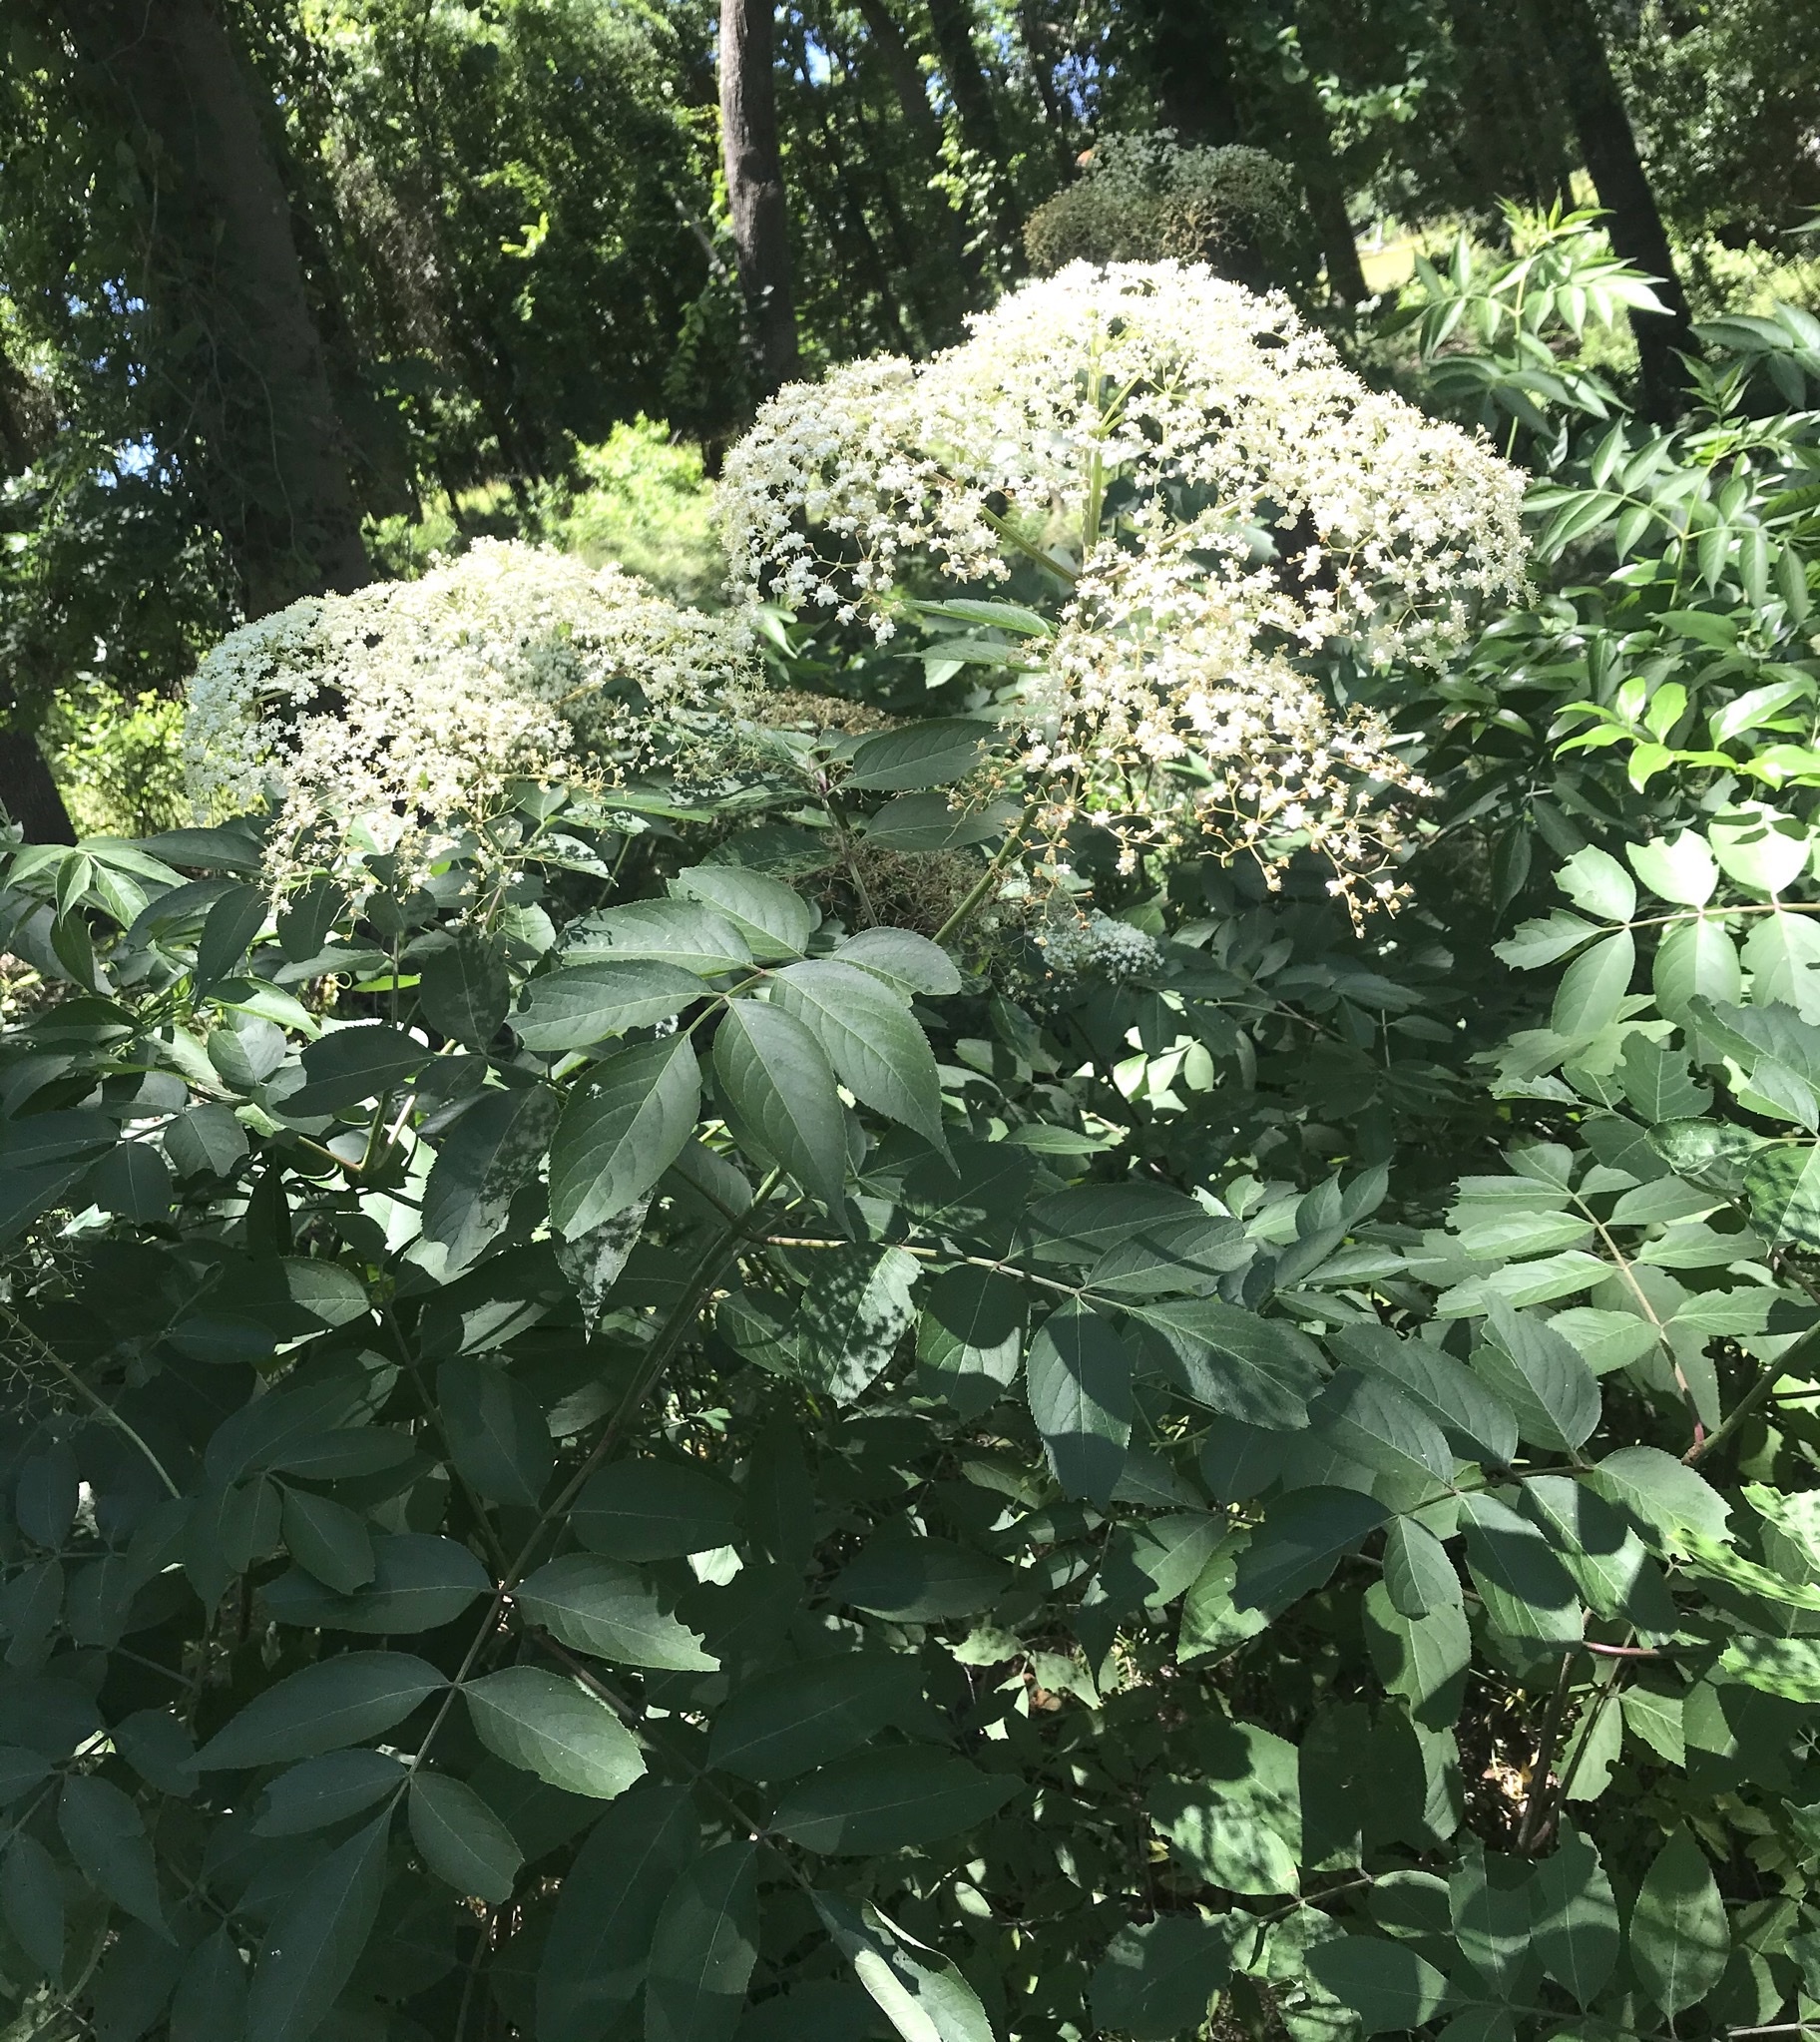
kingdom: Plantae
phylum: Tracheophyta
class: Magnoliopsida
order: Dipsacales
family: Viburnaceae
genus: Sambucus
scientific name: Sambucus canadensis
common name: American elder
